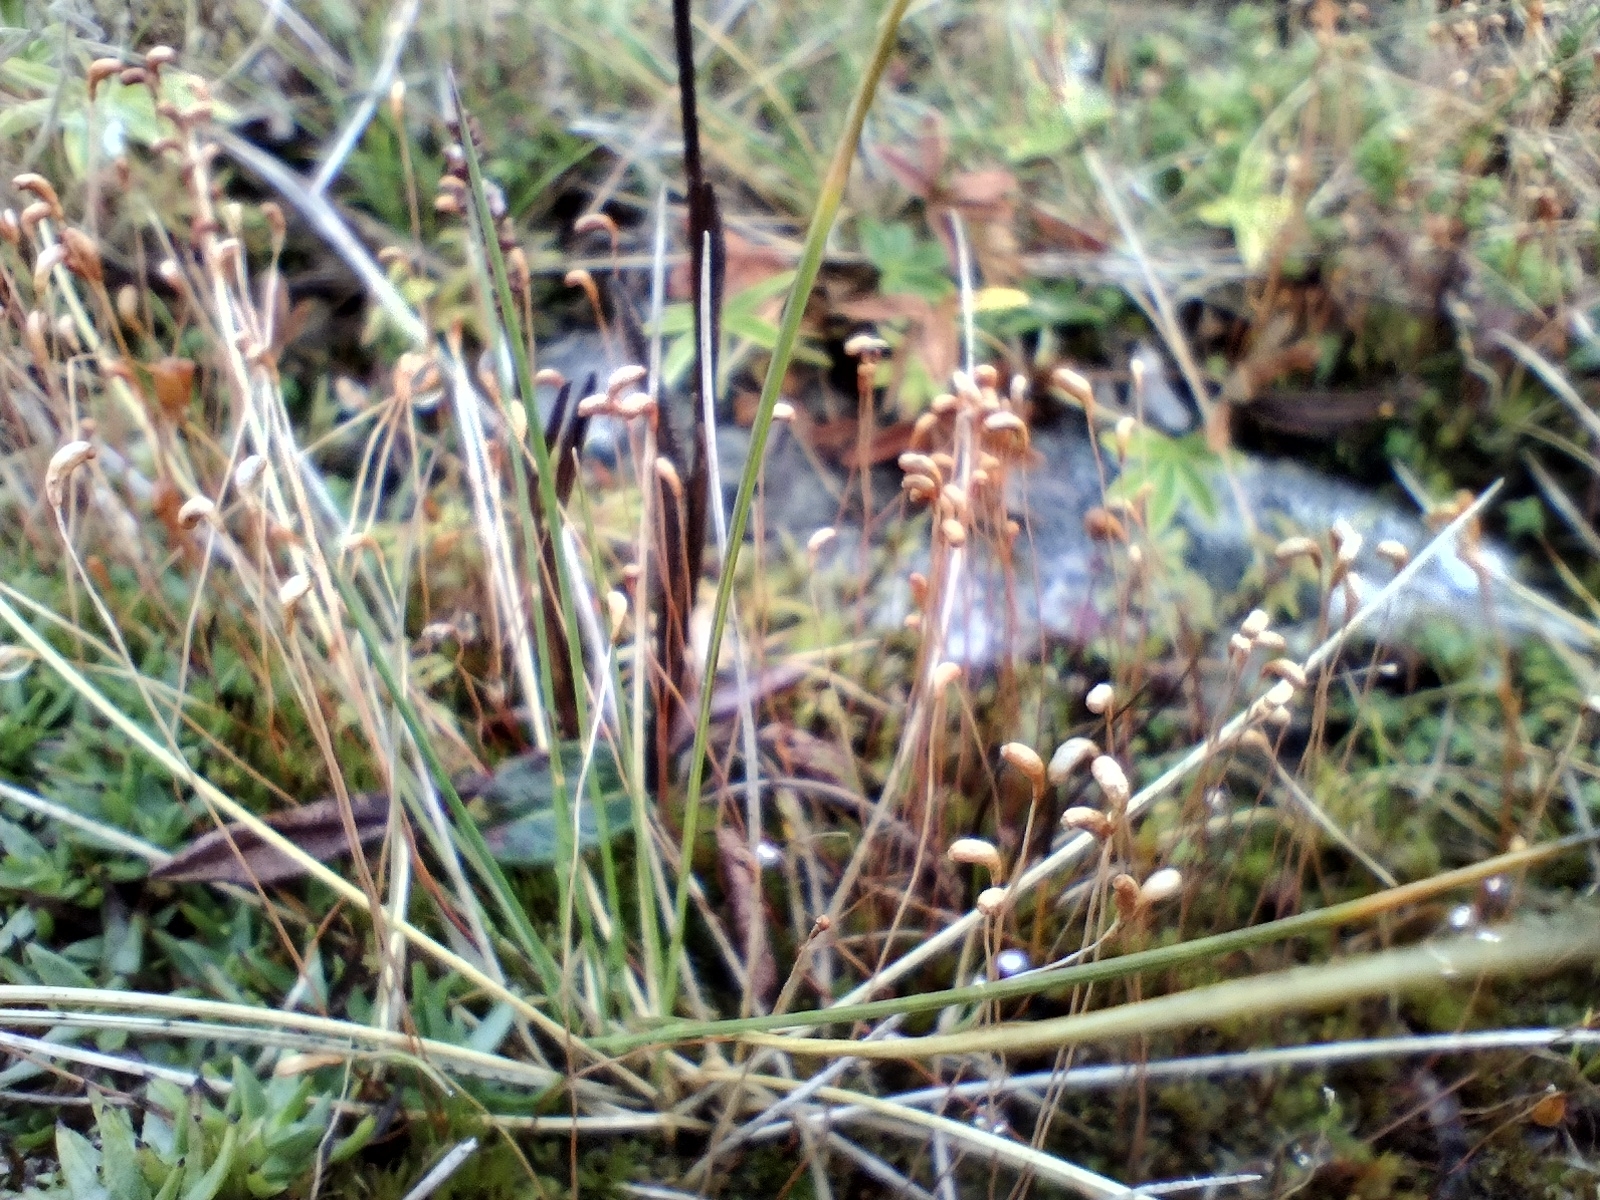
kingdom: Plantae
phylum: Bryophyta
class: Bryopsida
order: Splachnales
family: Meesiaceae
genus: Meesia
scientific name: Meesia uliginosa
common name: Capillary thread moss
